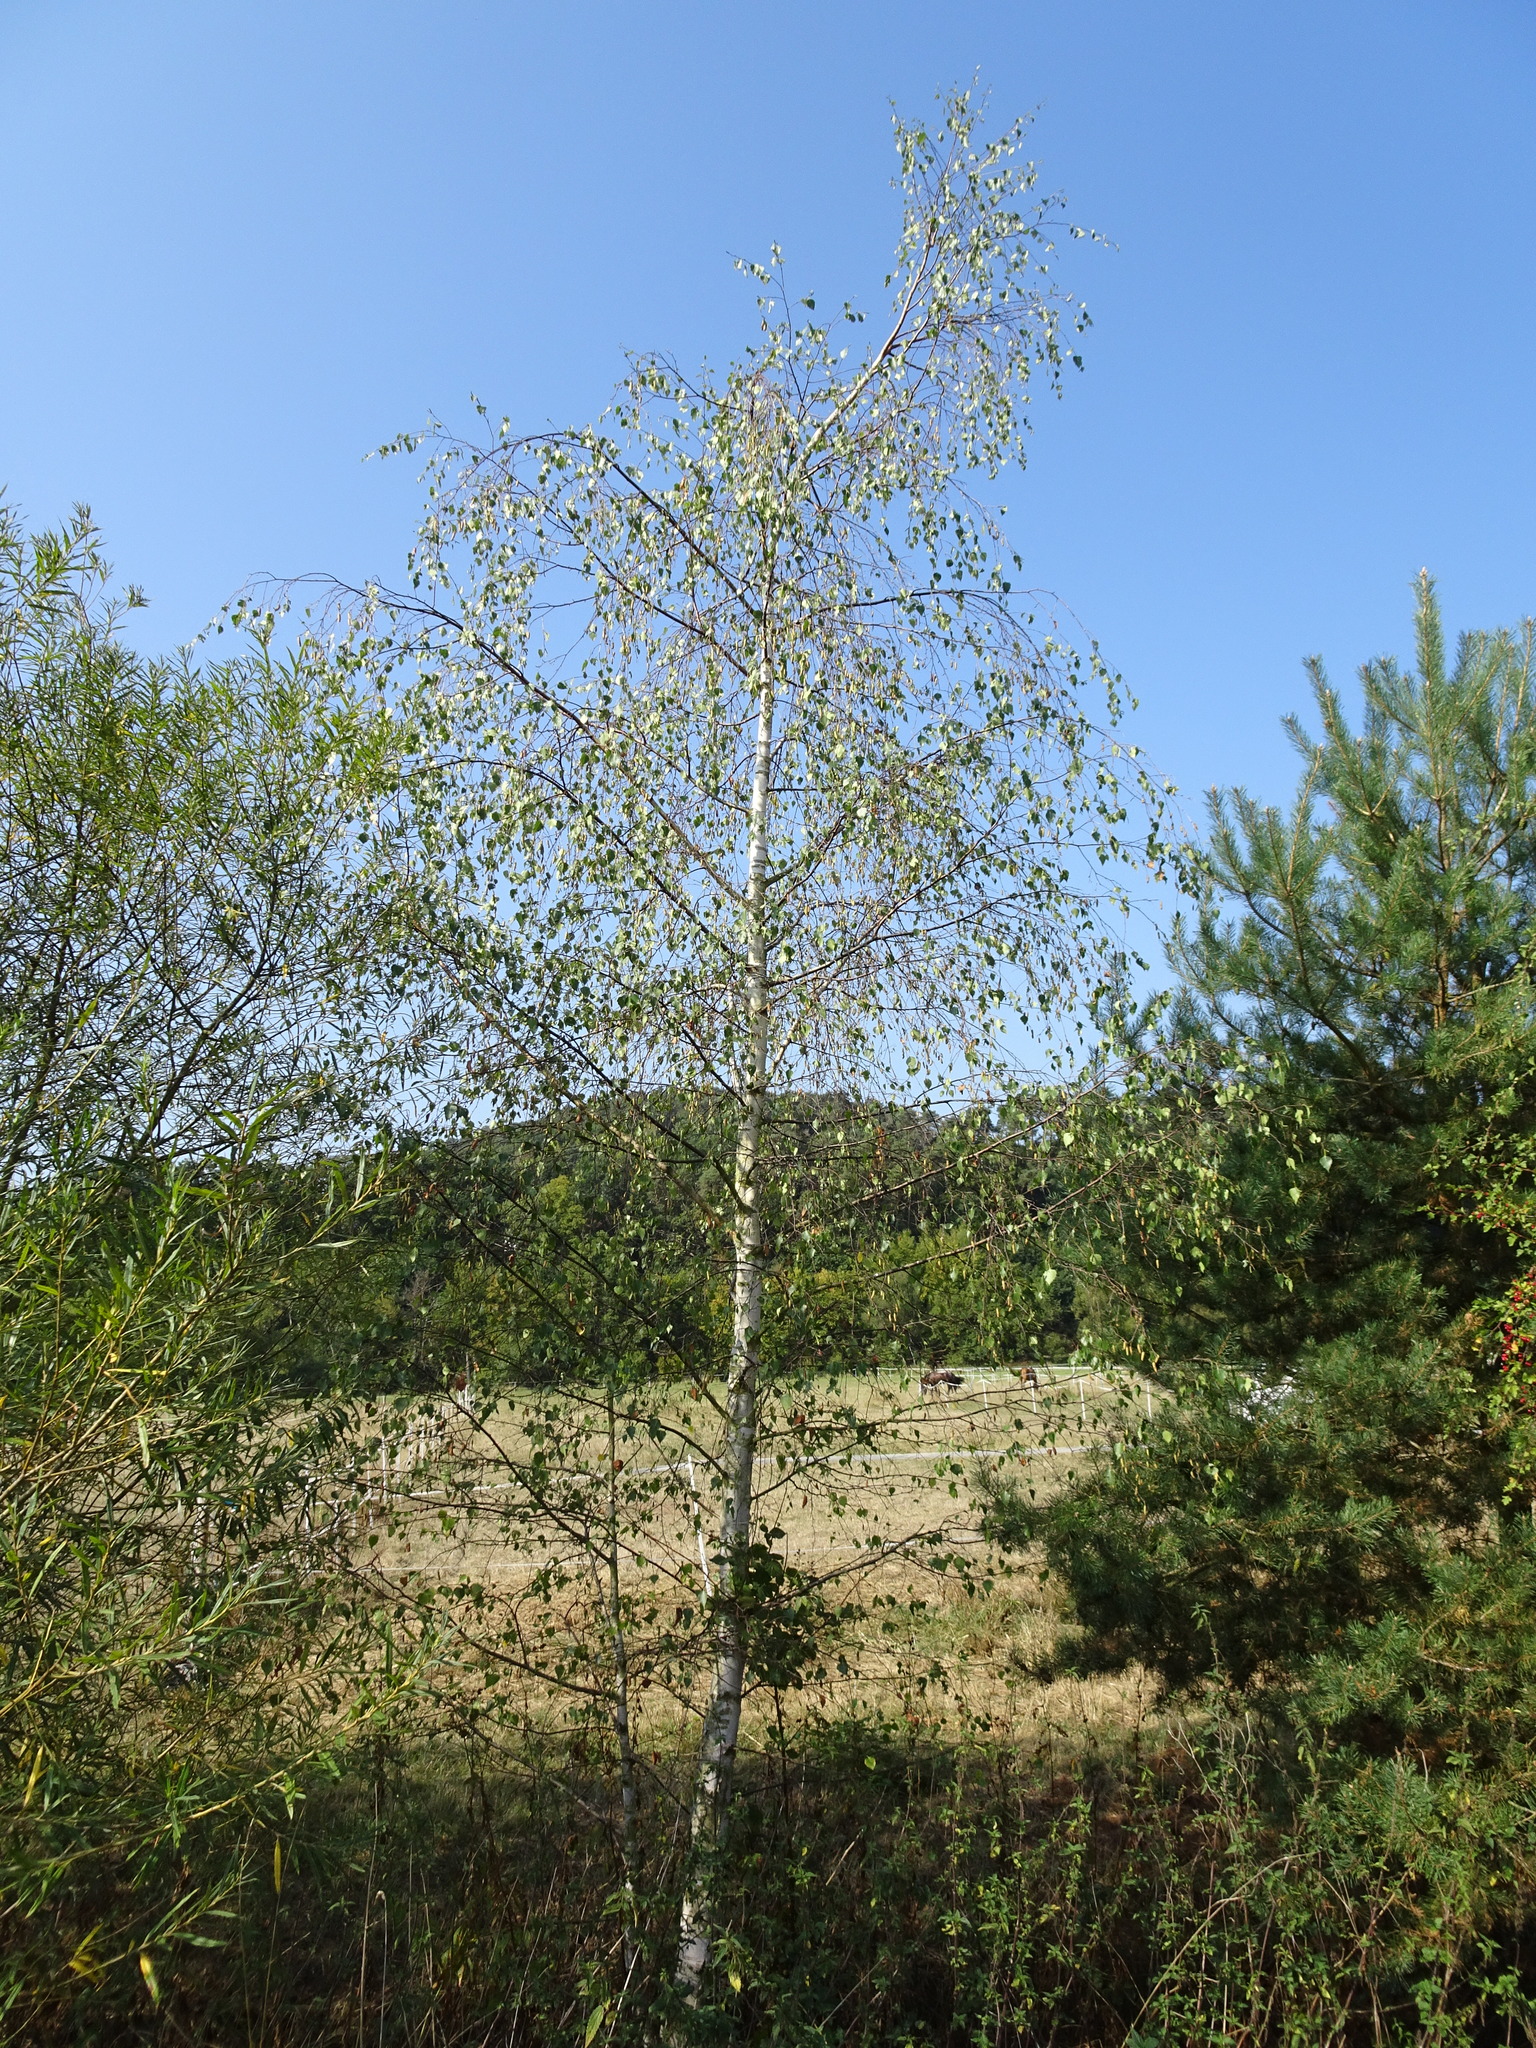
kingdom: Plantae
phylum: Tracheophyta
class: Magnoliopsida
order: Fagales
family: Betulaceae
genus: Betula
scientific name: Betula pendula
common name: Silver birch
